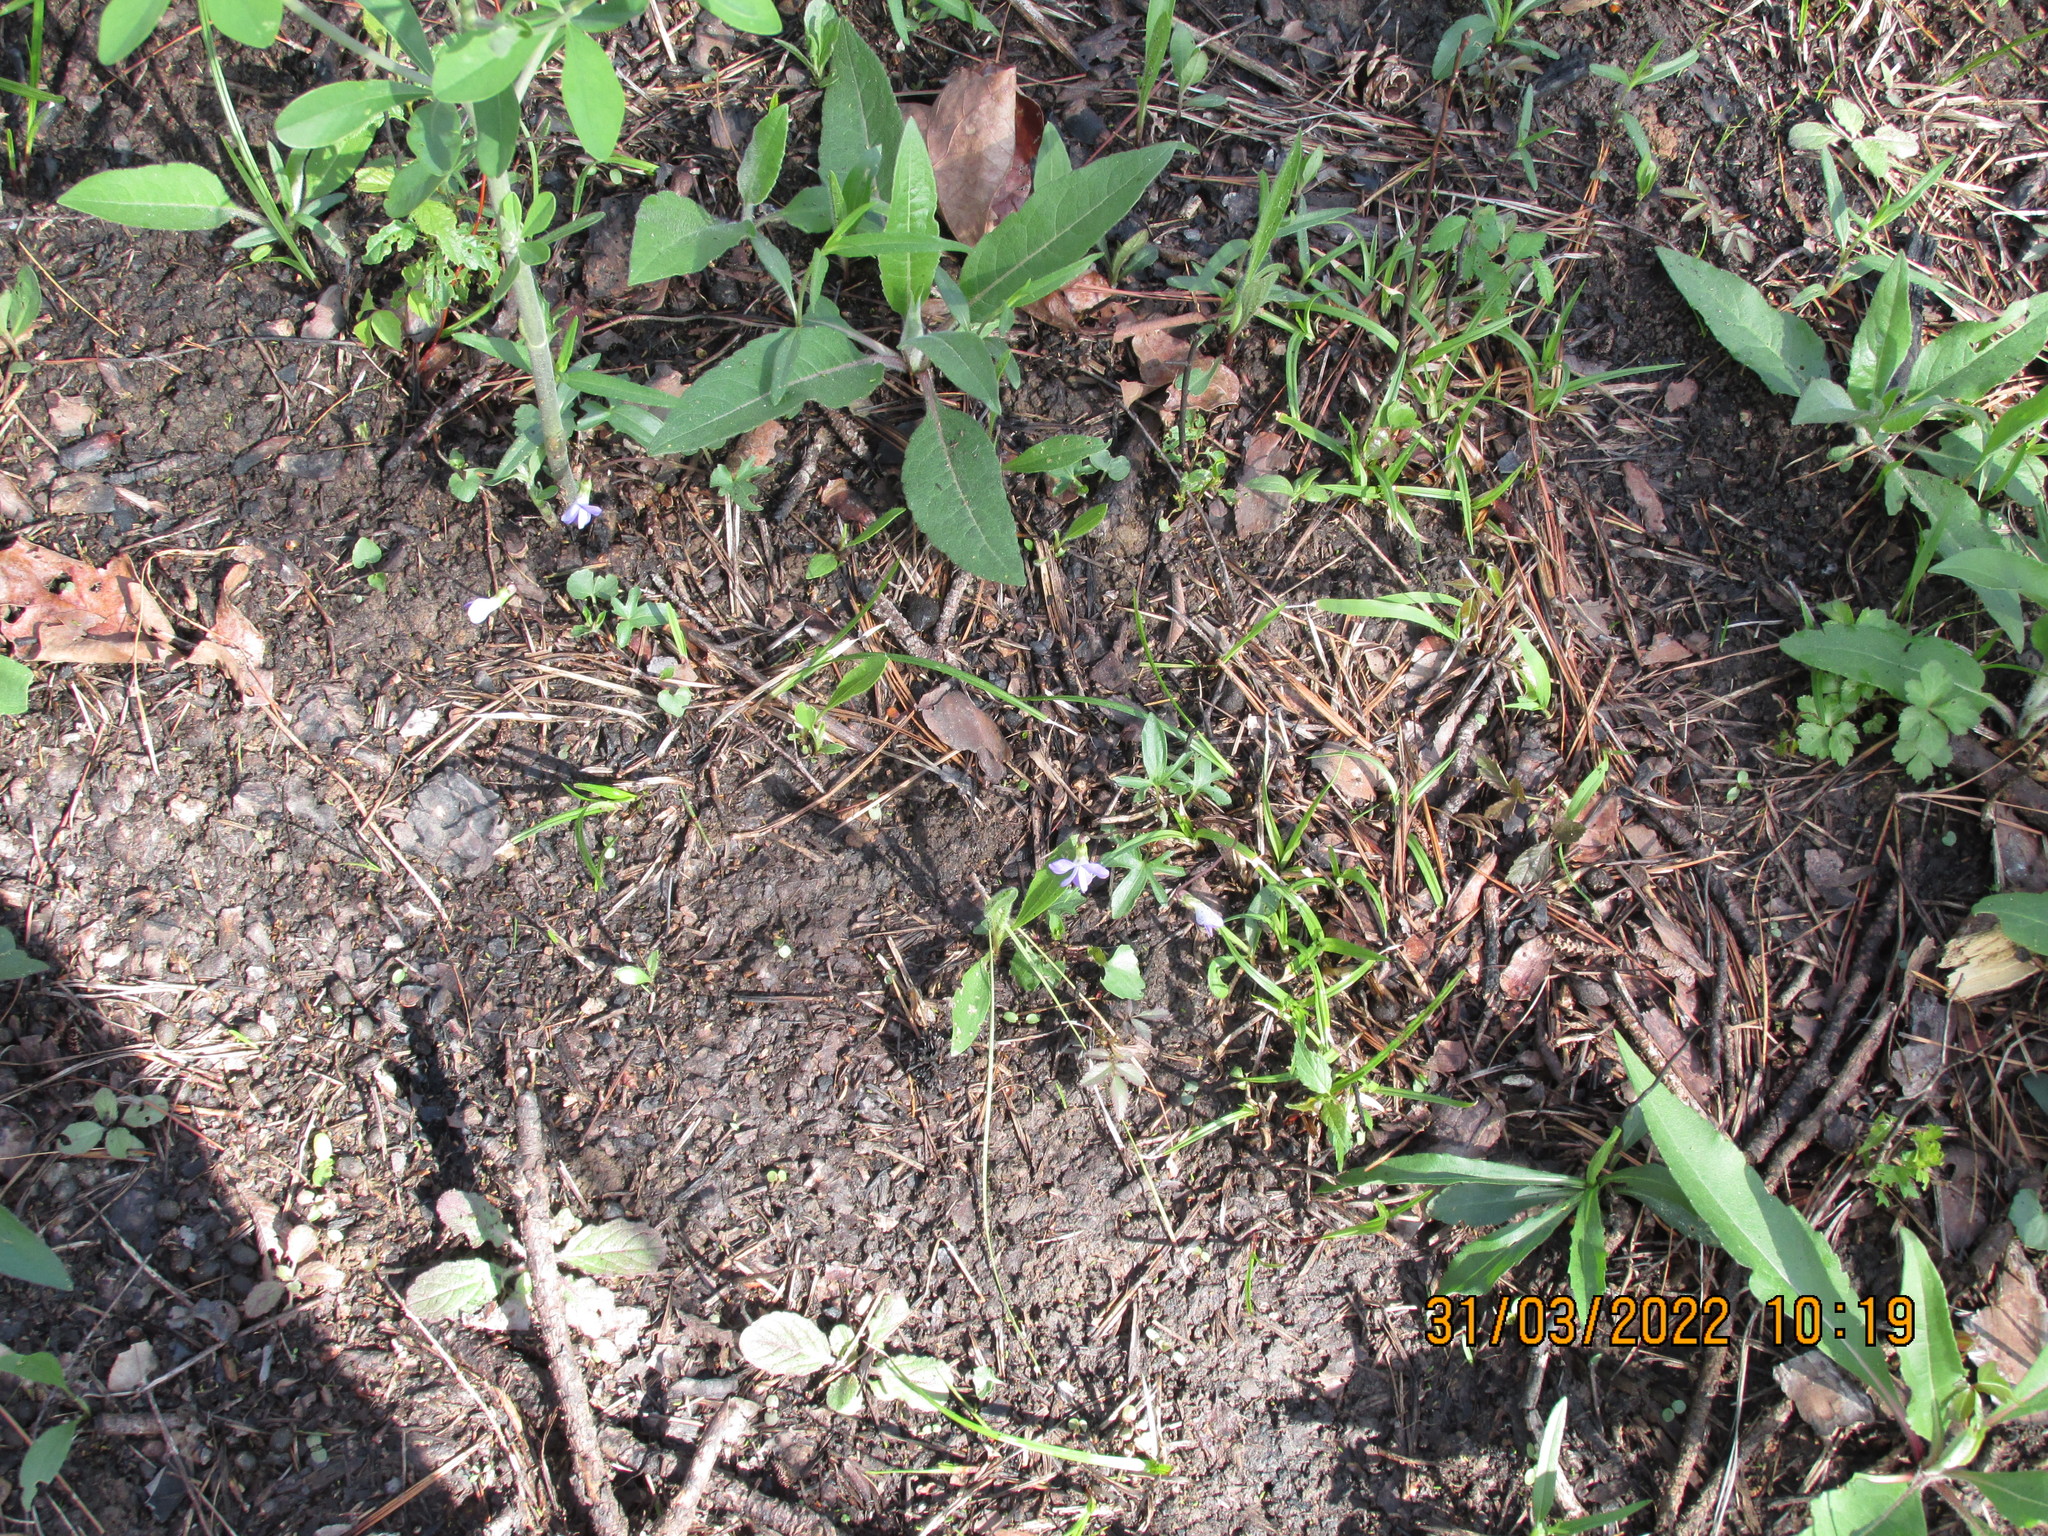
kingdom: Plantae
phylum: Tracheophyta
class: Magnoliopsida
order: Malpighiales
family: Violaceae
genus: Viola
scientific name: Viola palmata
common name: Early blue violet
